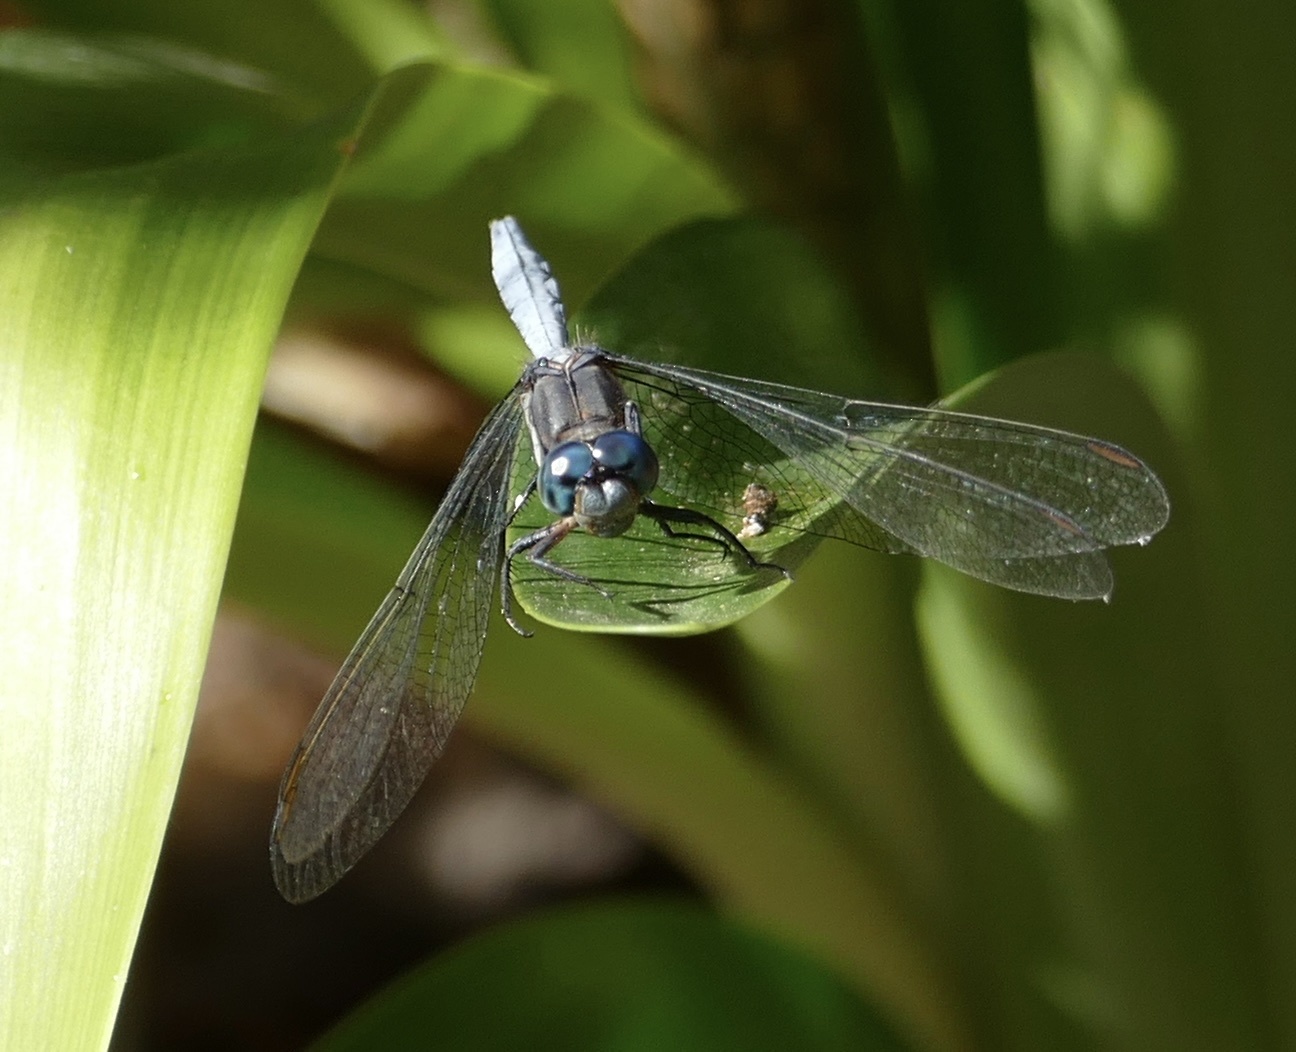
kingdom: Animalia
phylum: Arthropoda
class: Insecta
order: Odonata
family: Libellulidae
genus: Orthetrum
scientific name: Orthetrum julia
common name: Julia skimmer
